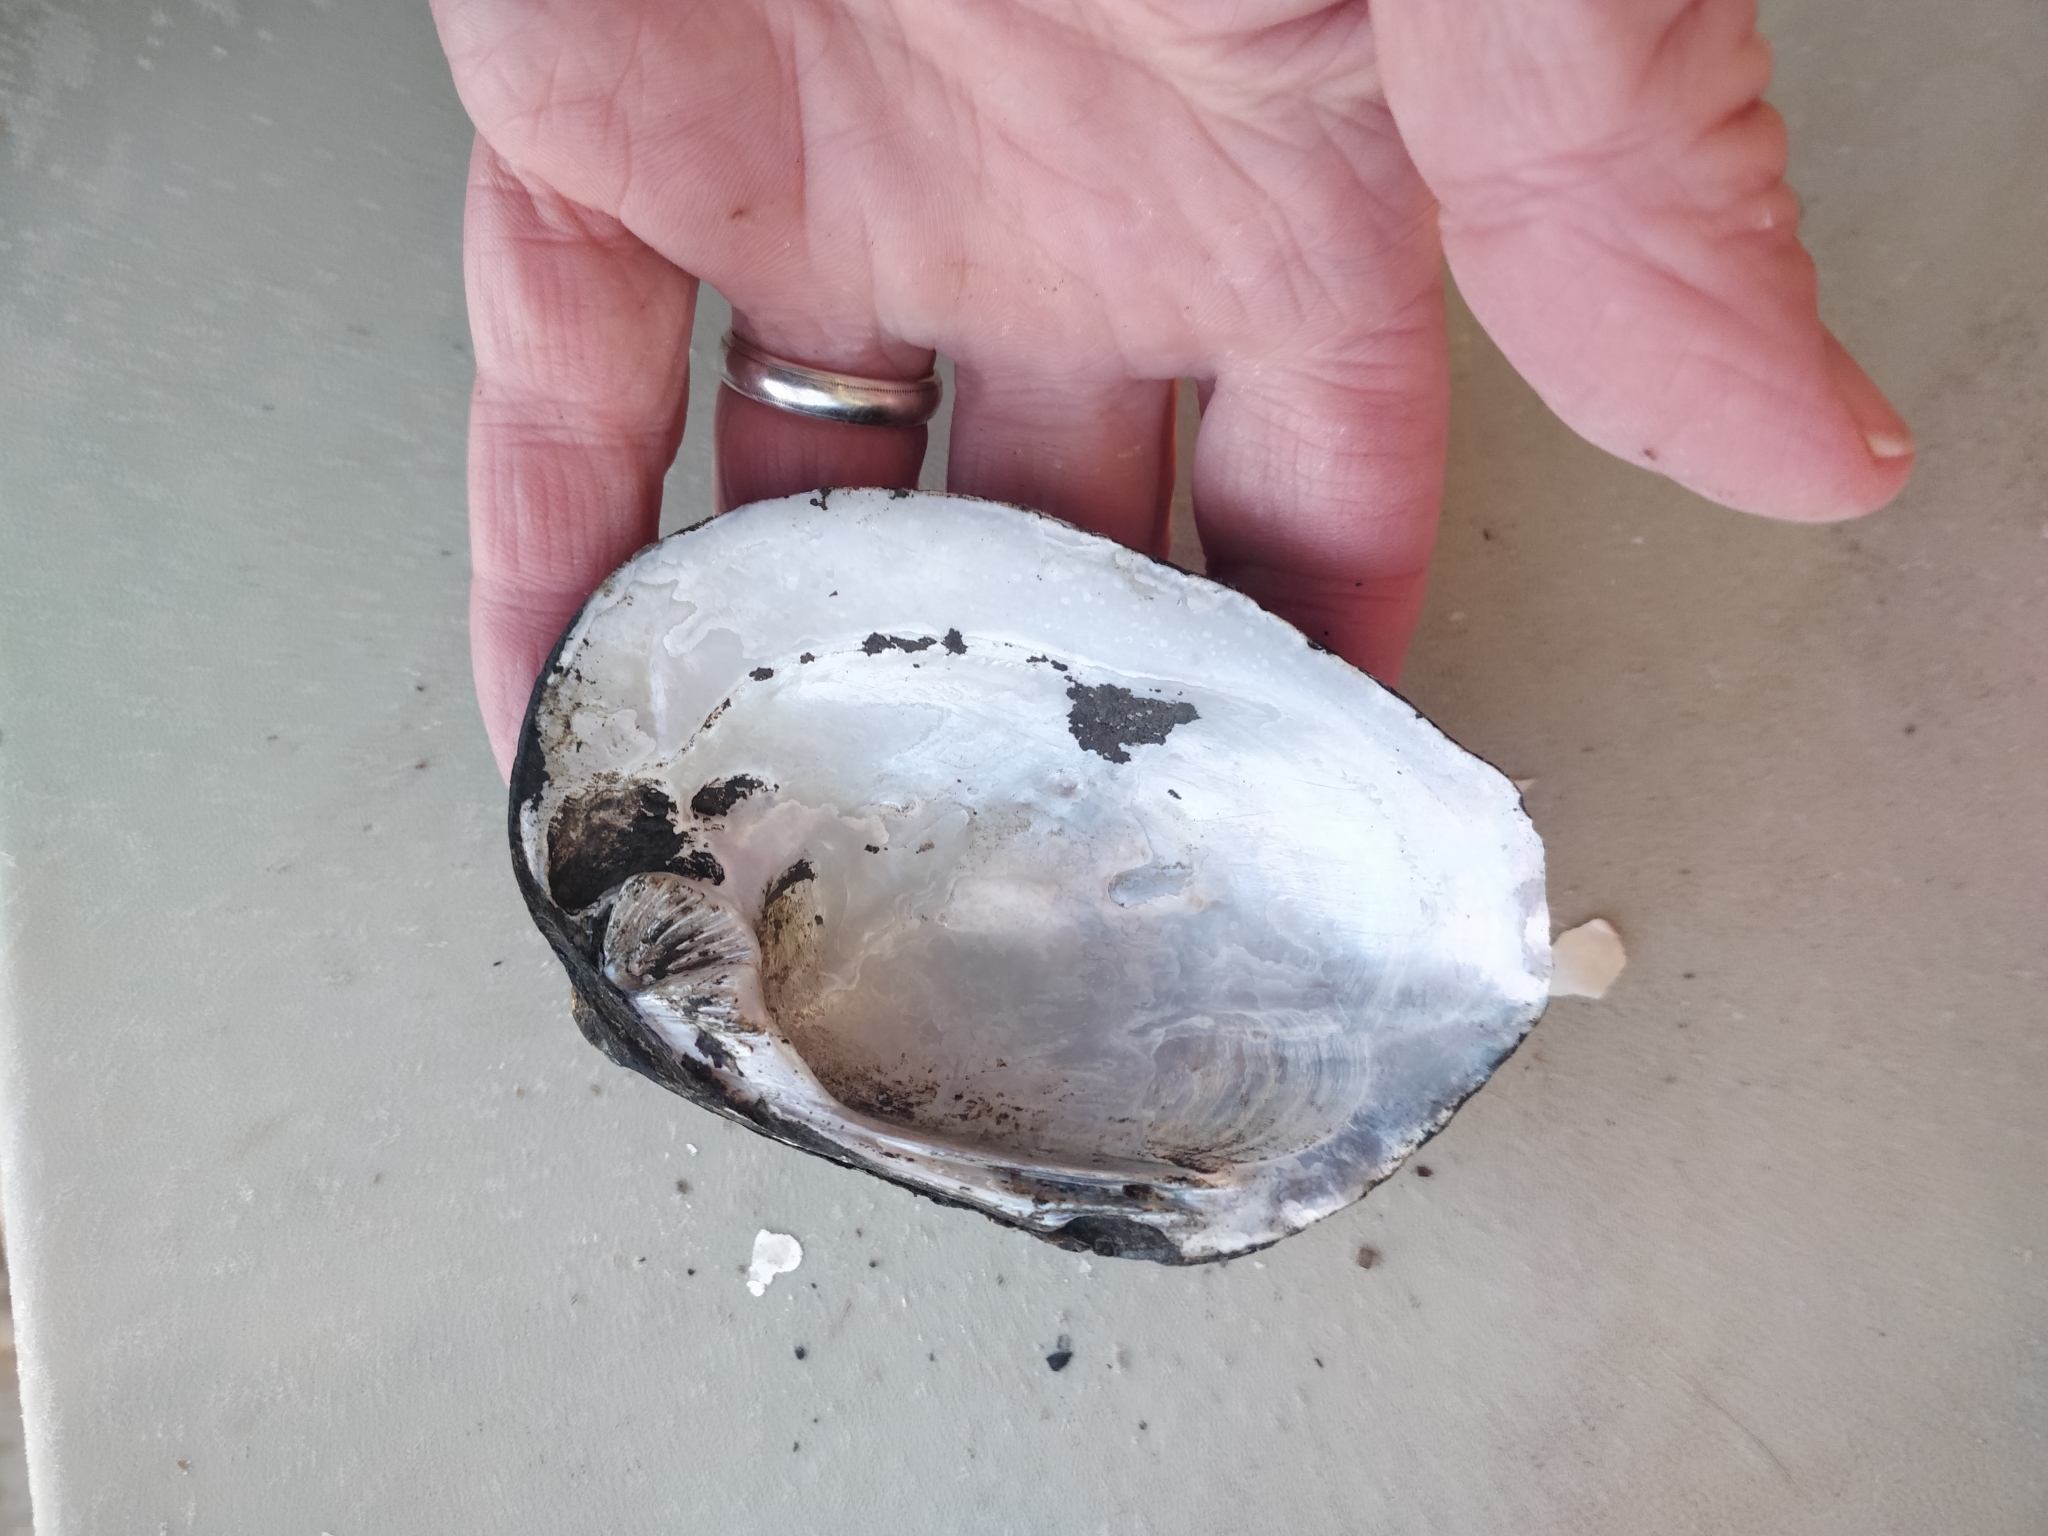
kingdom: Animalia
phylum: Mollusca
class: Bivalvia
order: Unionida
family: Unionidae
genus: Amblema
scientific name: Amblema plicata
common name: Threeridge
